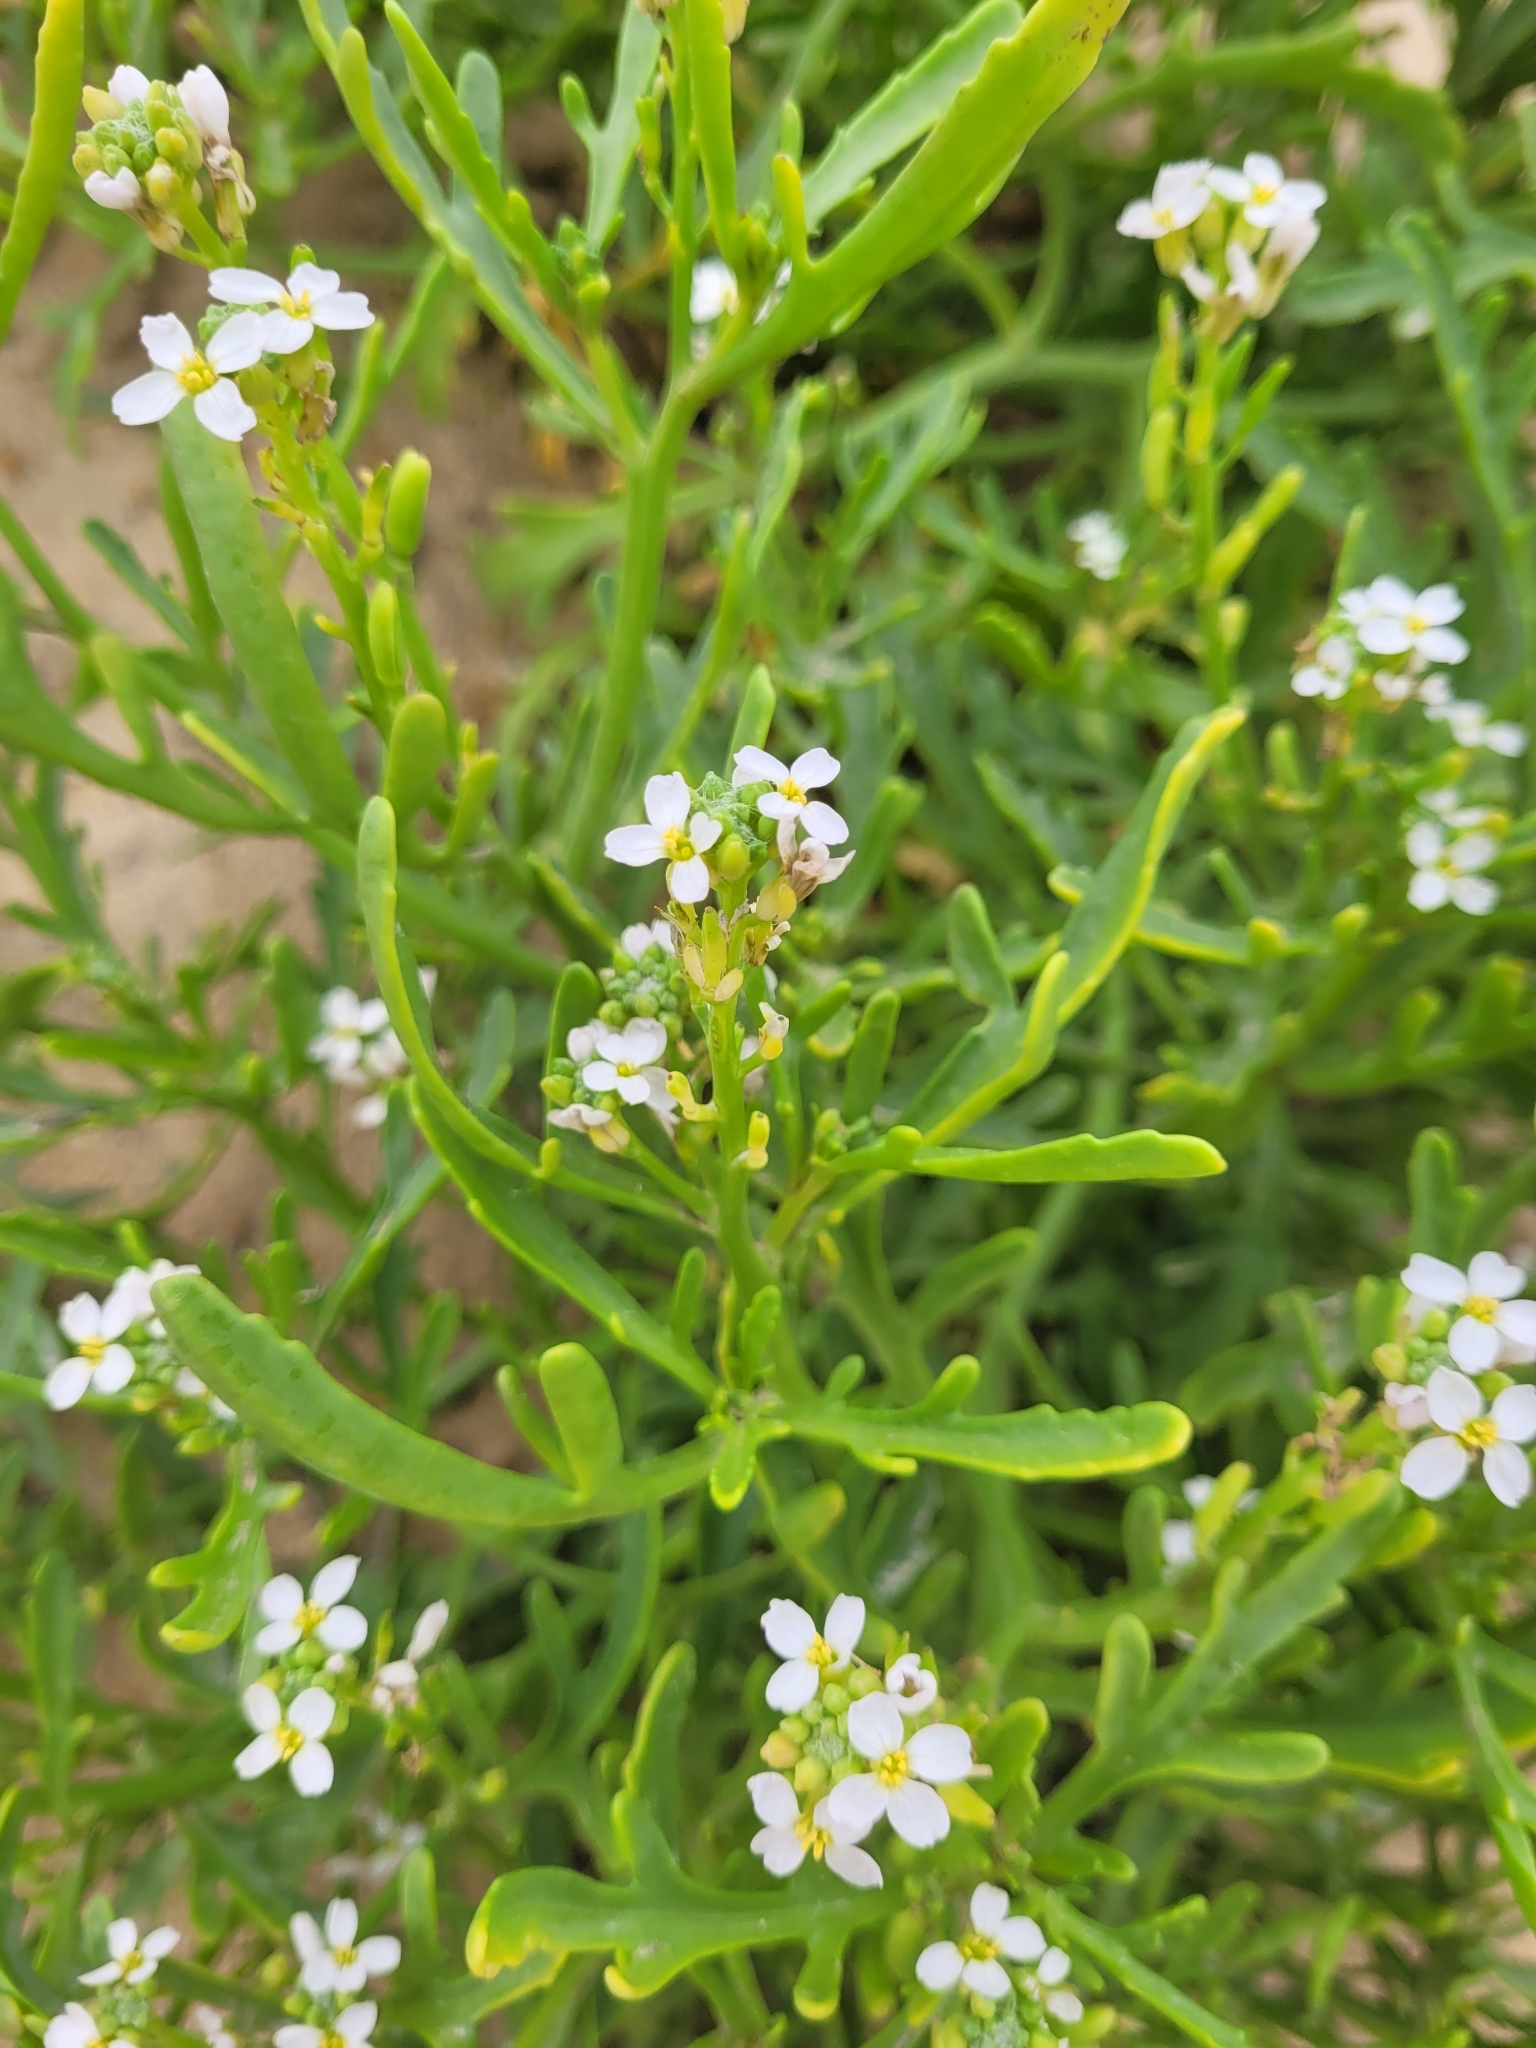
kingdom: Plantae
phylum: Tracheophyta
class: Magnoliopsida
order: Brassicales
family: Brassicaceae
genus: Cakile
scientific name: Cakile maritima
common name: Sea rocket
